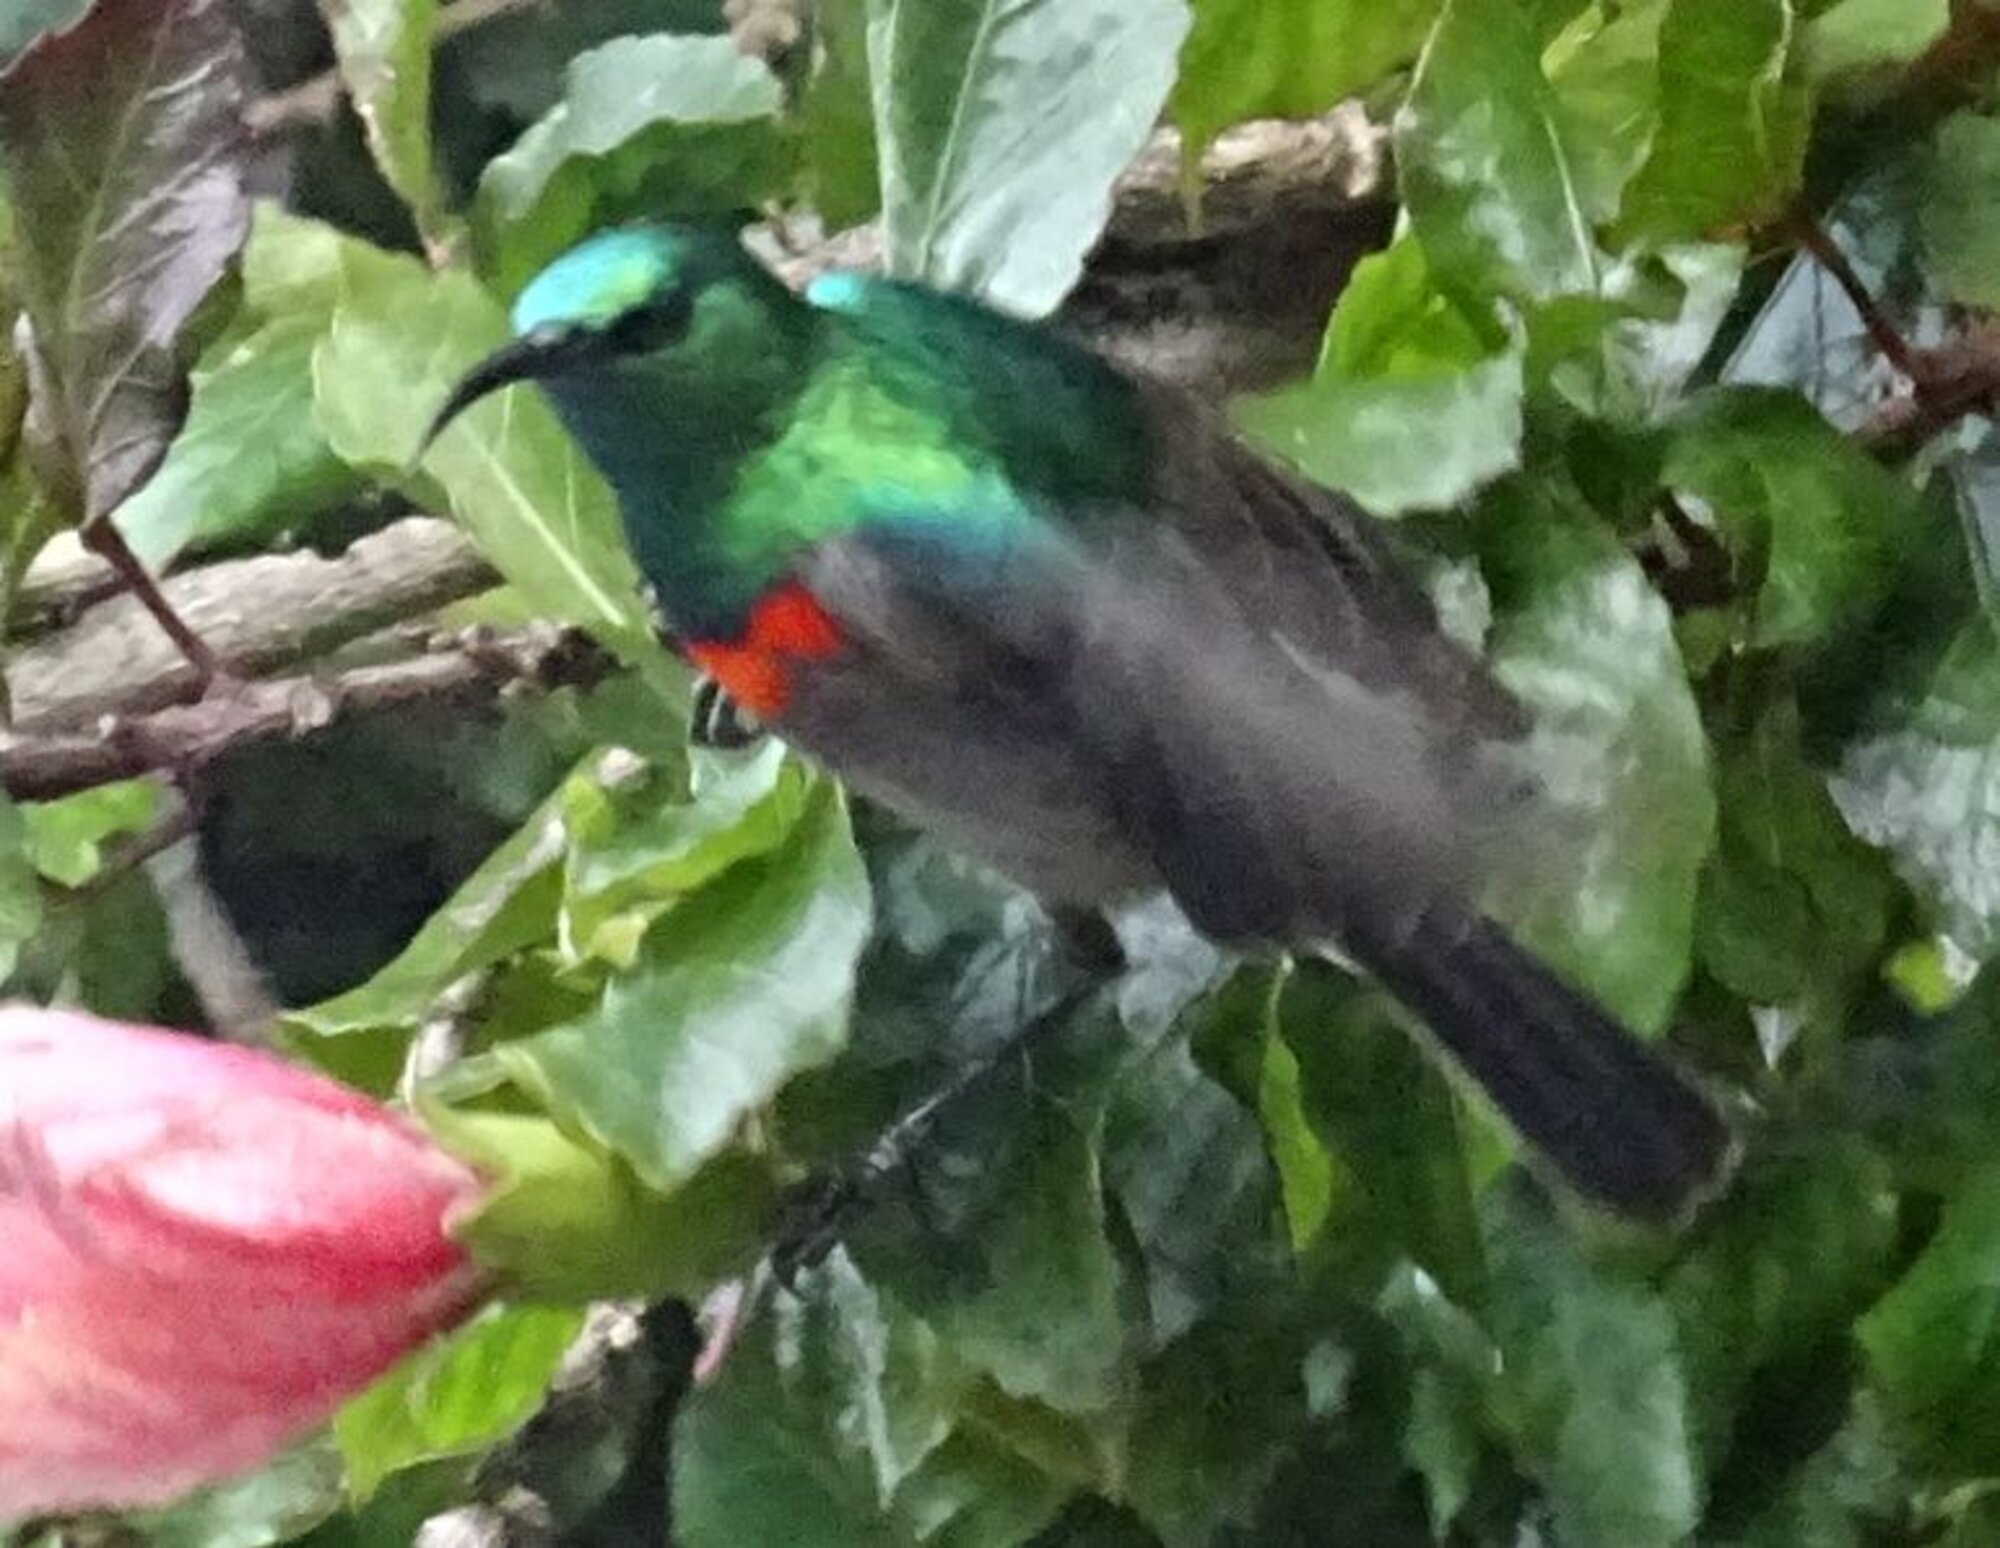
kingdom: Animalia
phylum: Chordata
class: Aves
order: Passeriformes
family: Nectariniidae
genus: Cinnyris
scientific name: Cinnyris chalybeus
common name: Southern double-collared sunbird
